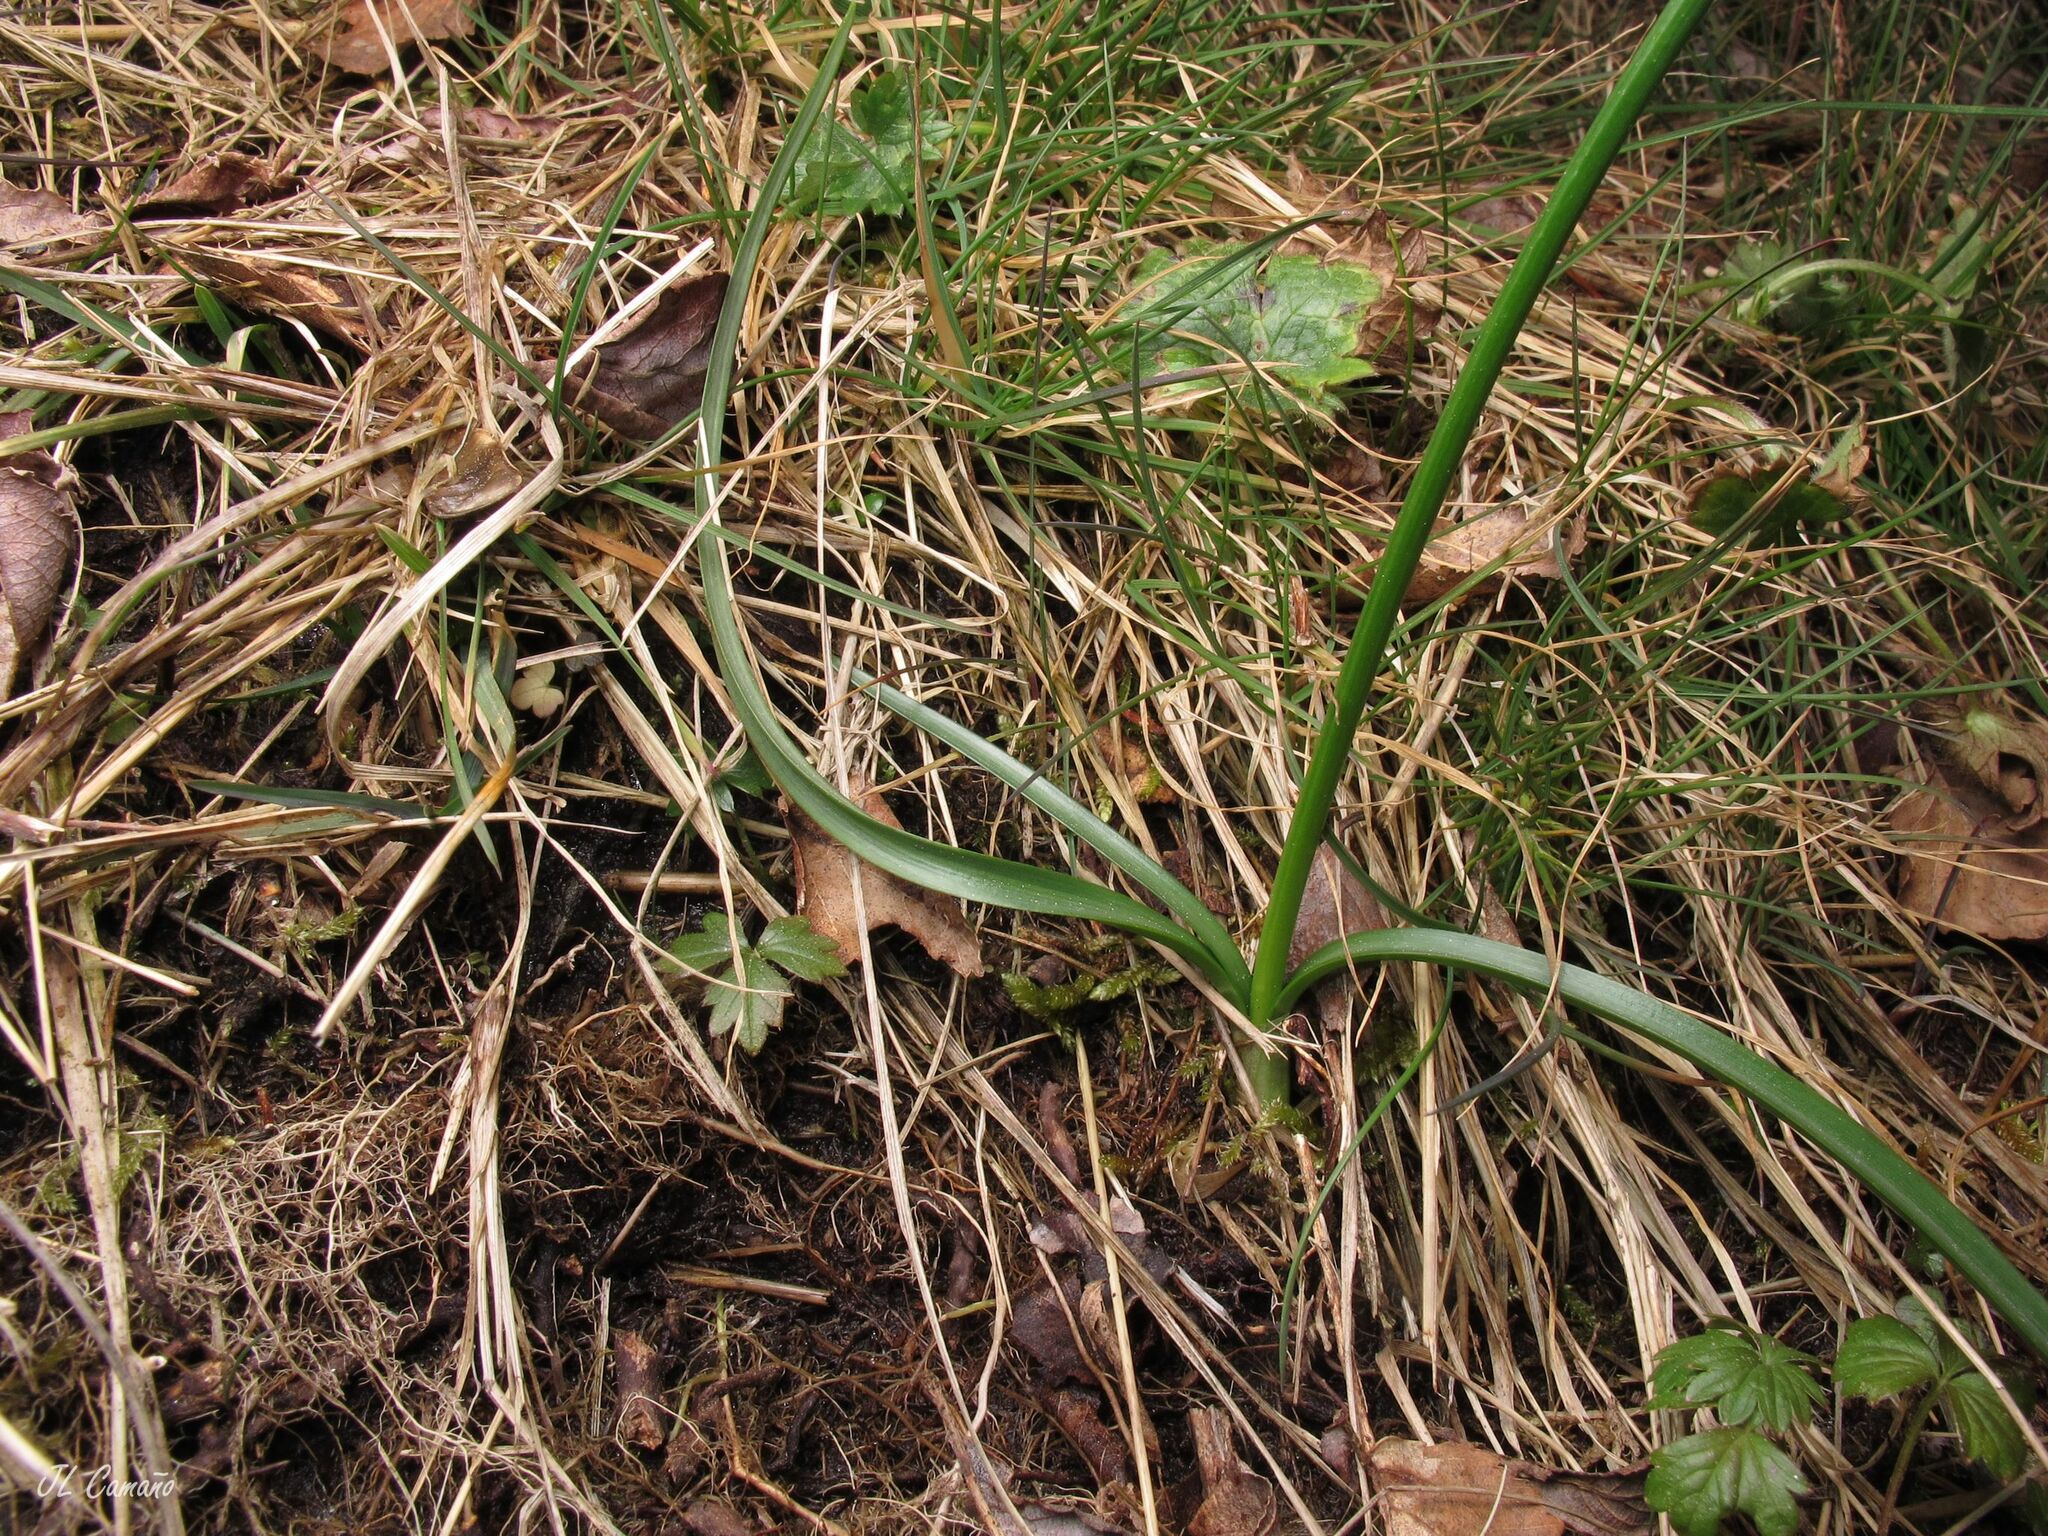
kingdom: Plantae
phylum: Tracheophyta
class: Liliopsida
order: Asparagales
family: Amaryllidaceae
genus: Narcissus
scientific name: Narcissus cyclamineus
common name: Cyclamen-flowered daffodil
